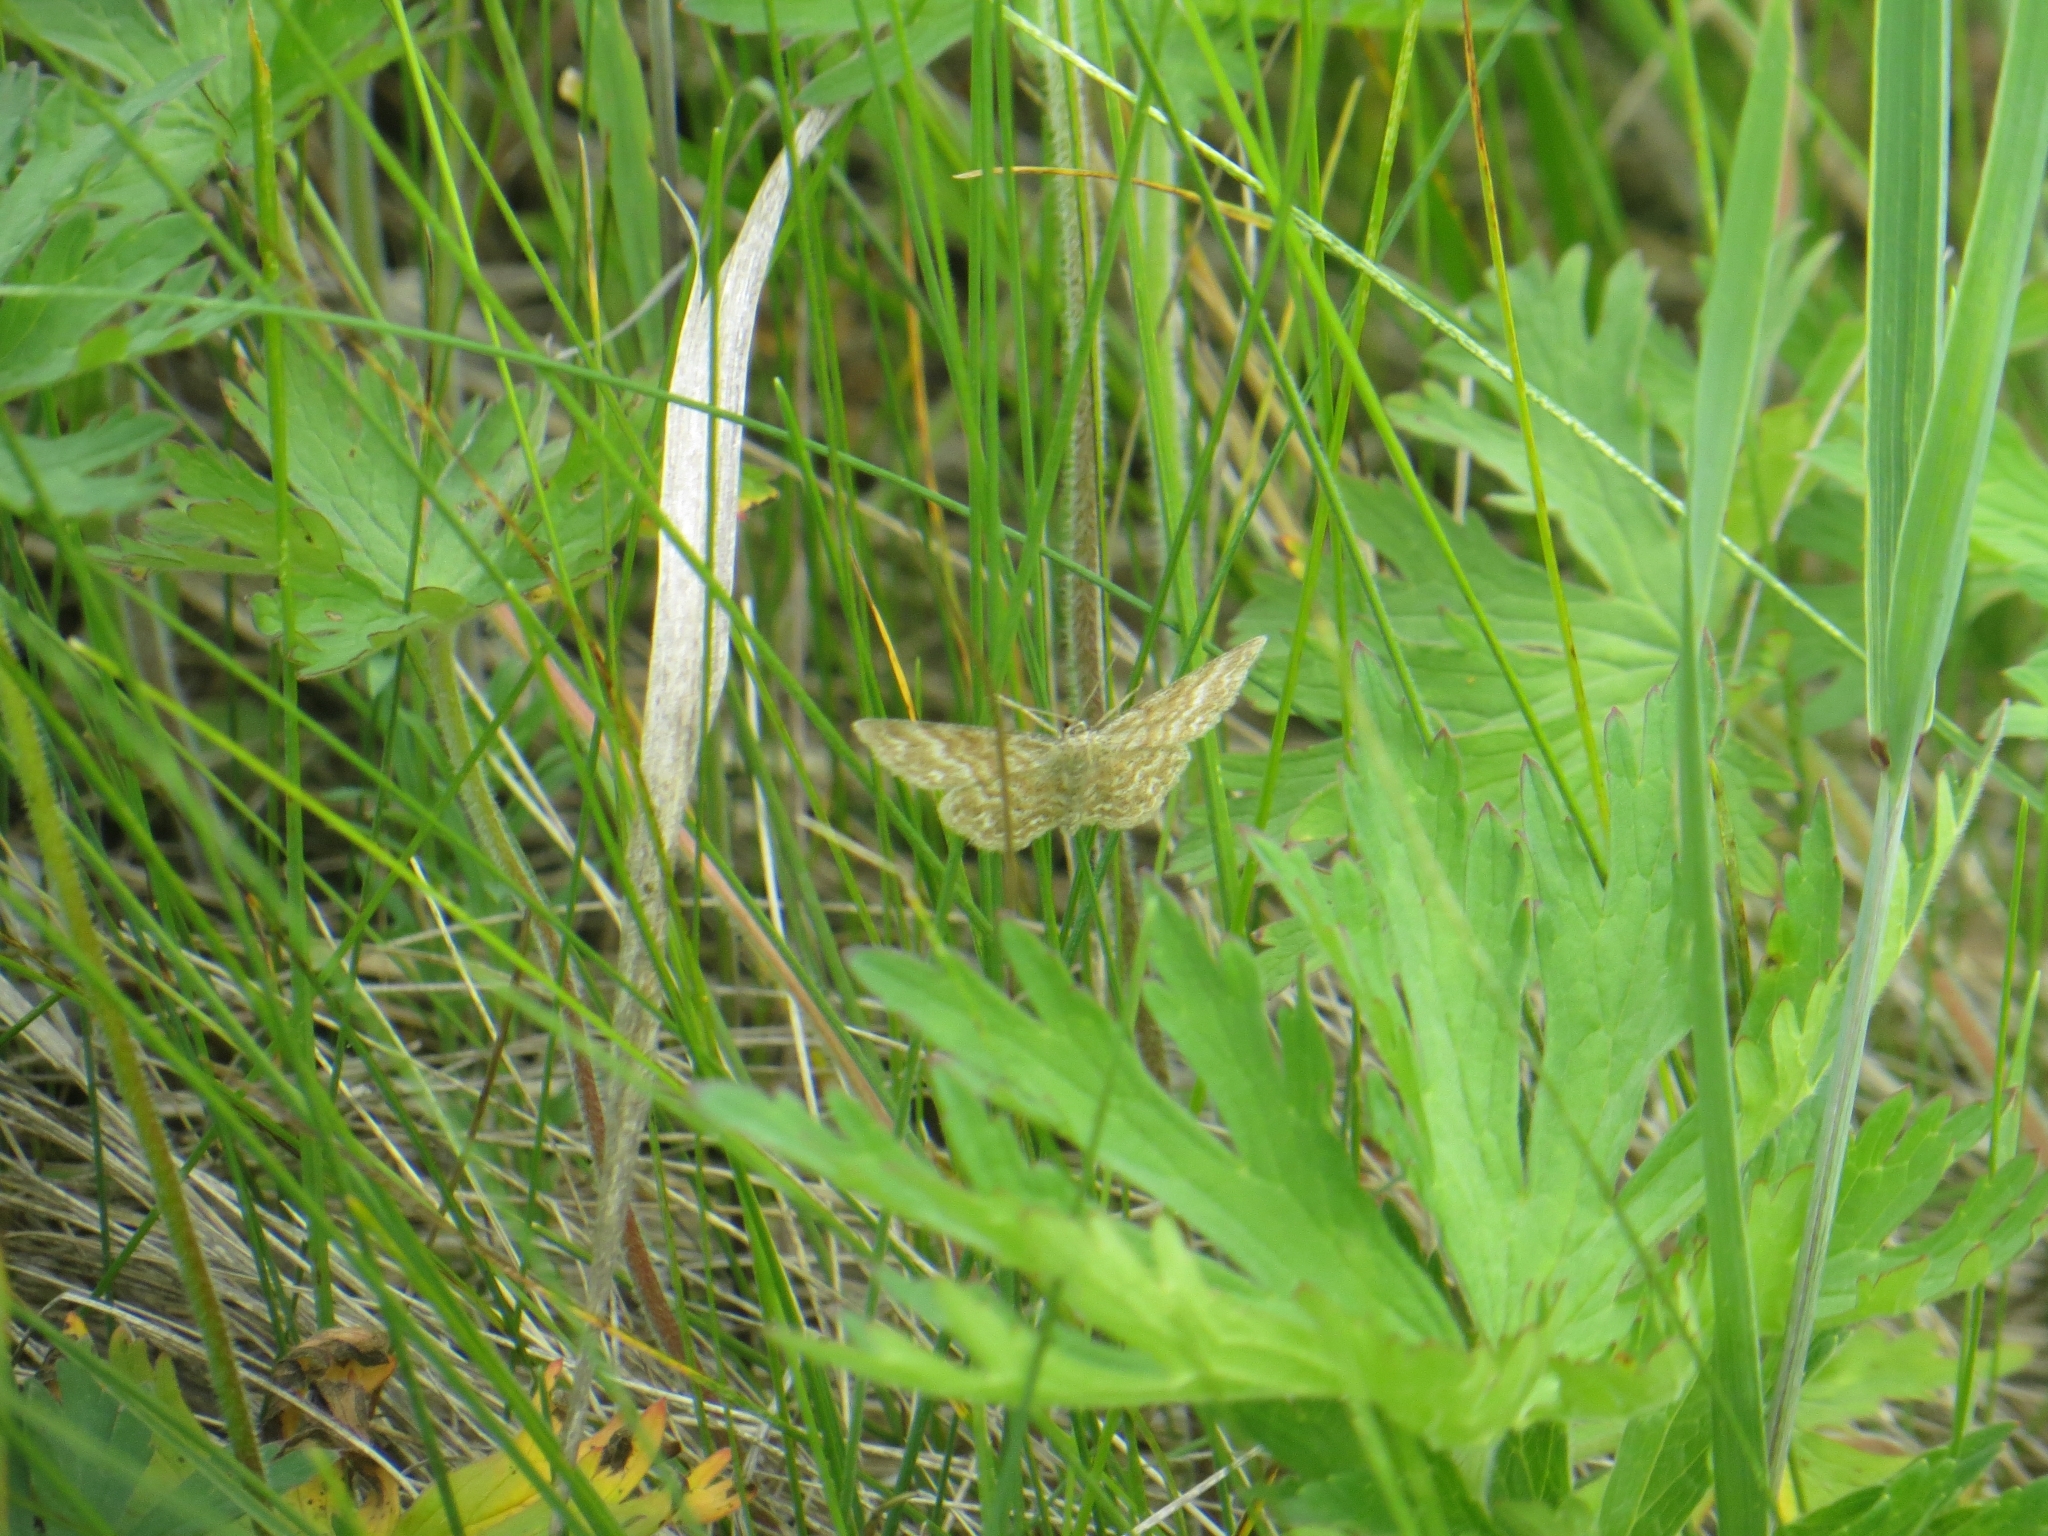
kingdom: Animalia
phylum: Arthropoda
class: Insecta
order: Lepidoptera
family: Geometridae
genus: Scopula
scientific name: Scopula immorata
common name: Lewes wave
